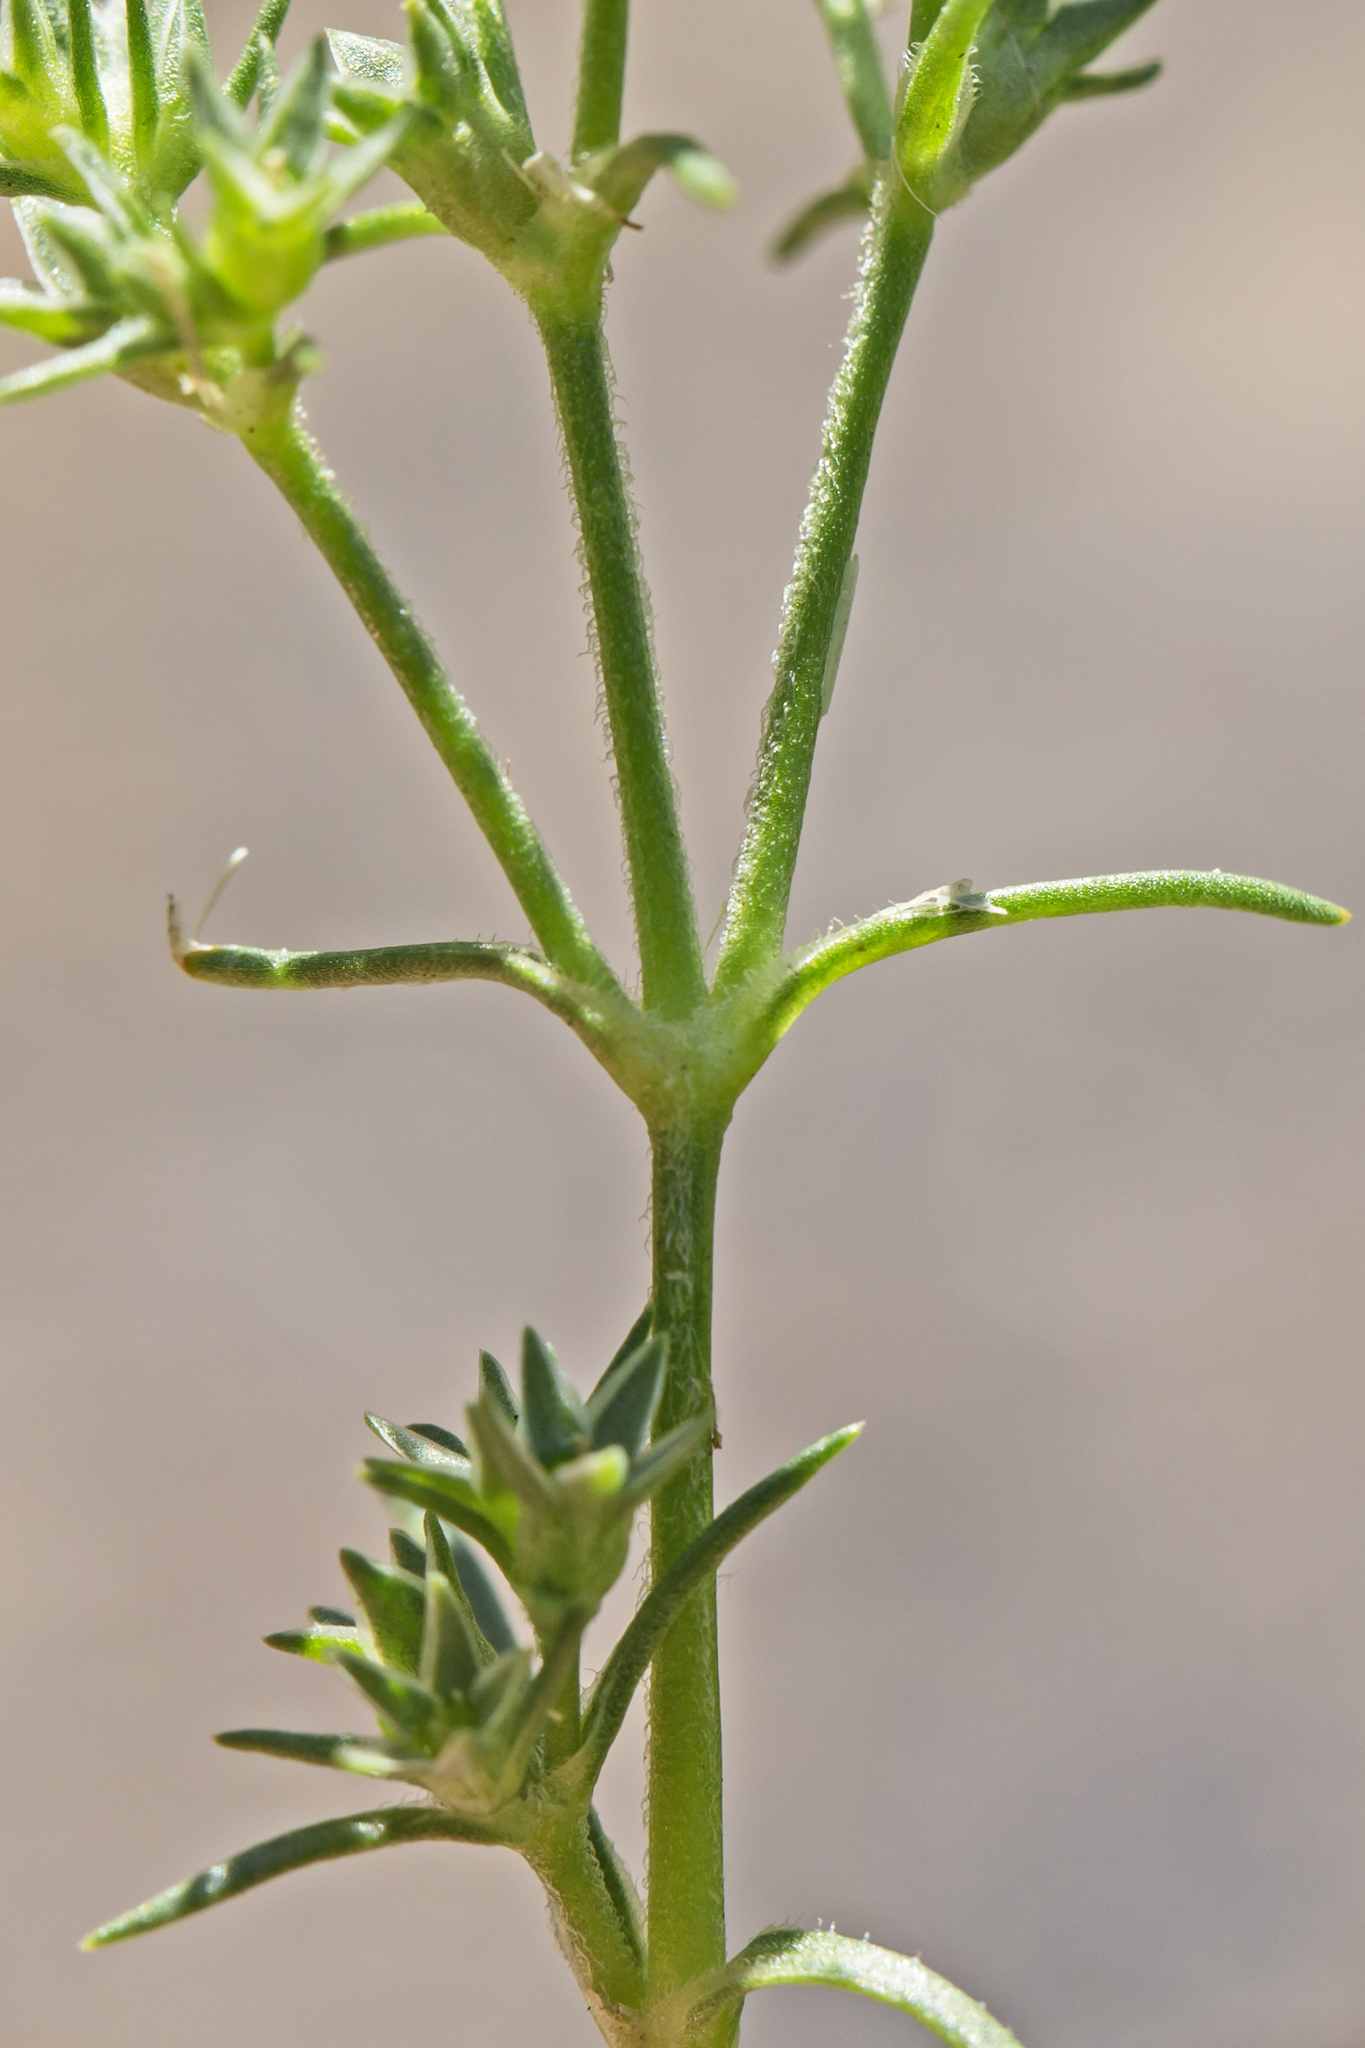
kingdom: Plantae
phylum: Tracheophyta
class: Magnoliopsida
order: Caryophyllales
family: Caryophyllaceae
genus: Scleranthus
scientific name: Scleranthus annuus
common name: Annual knawel
